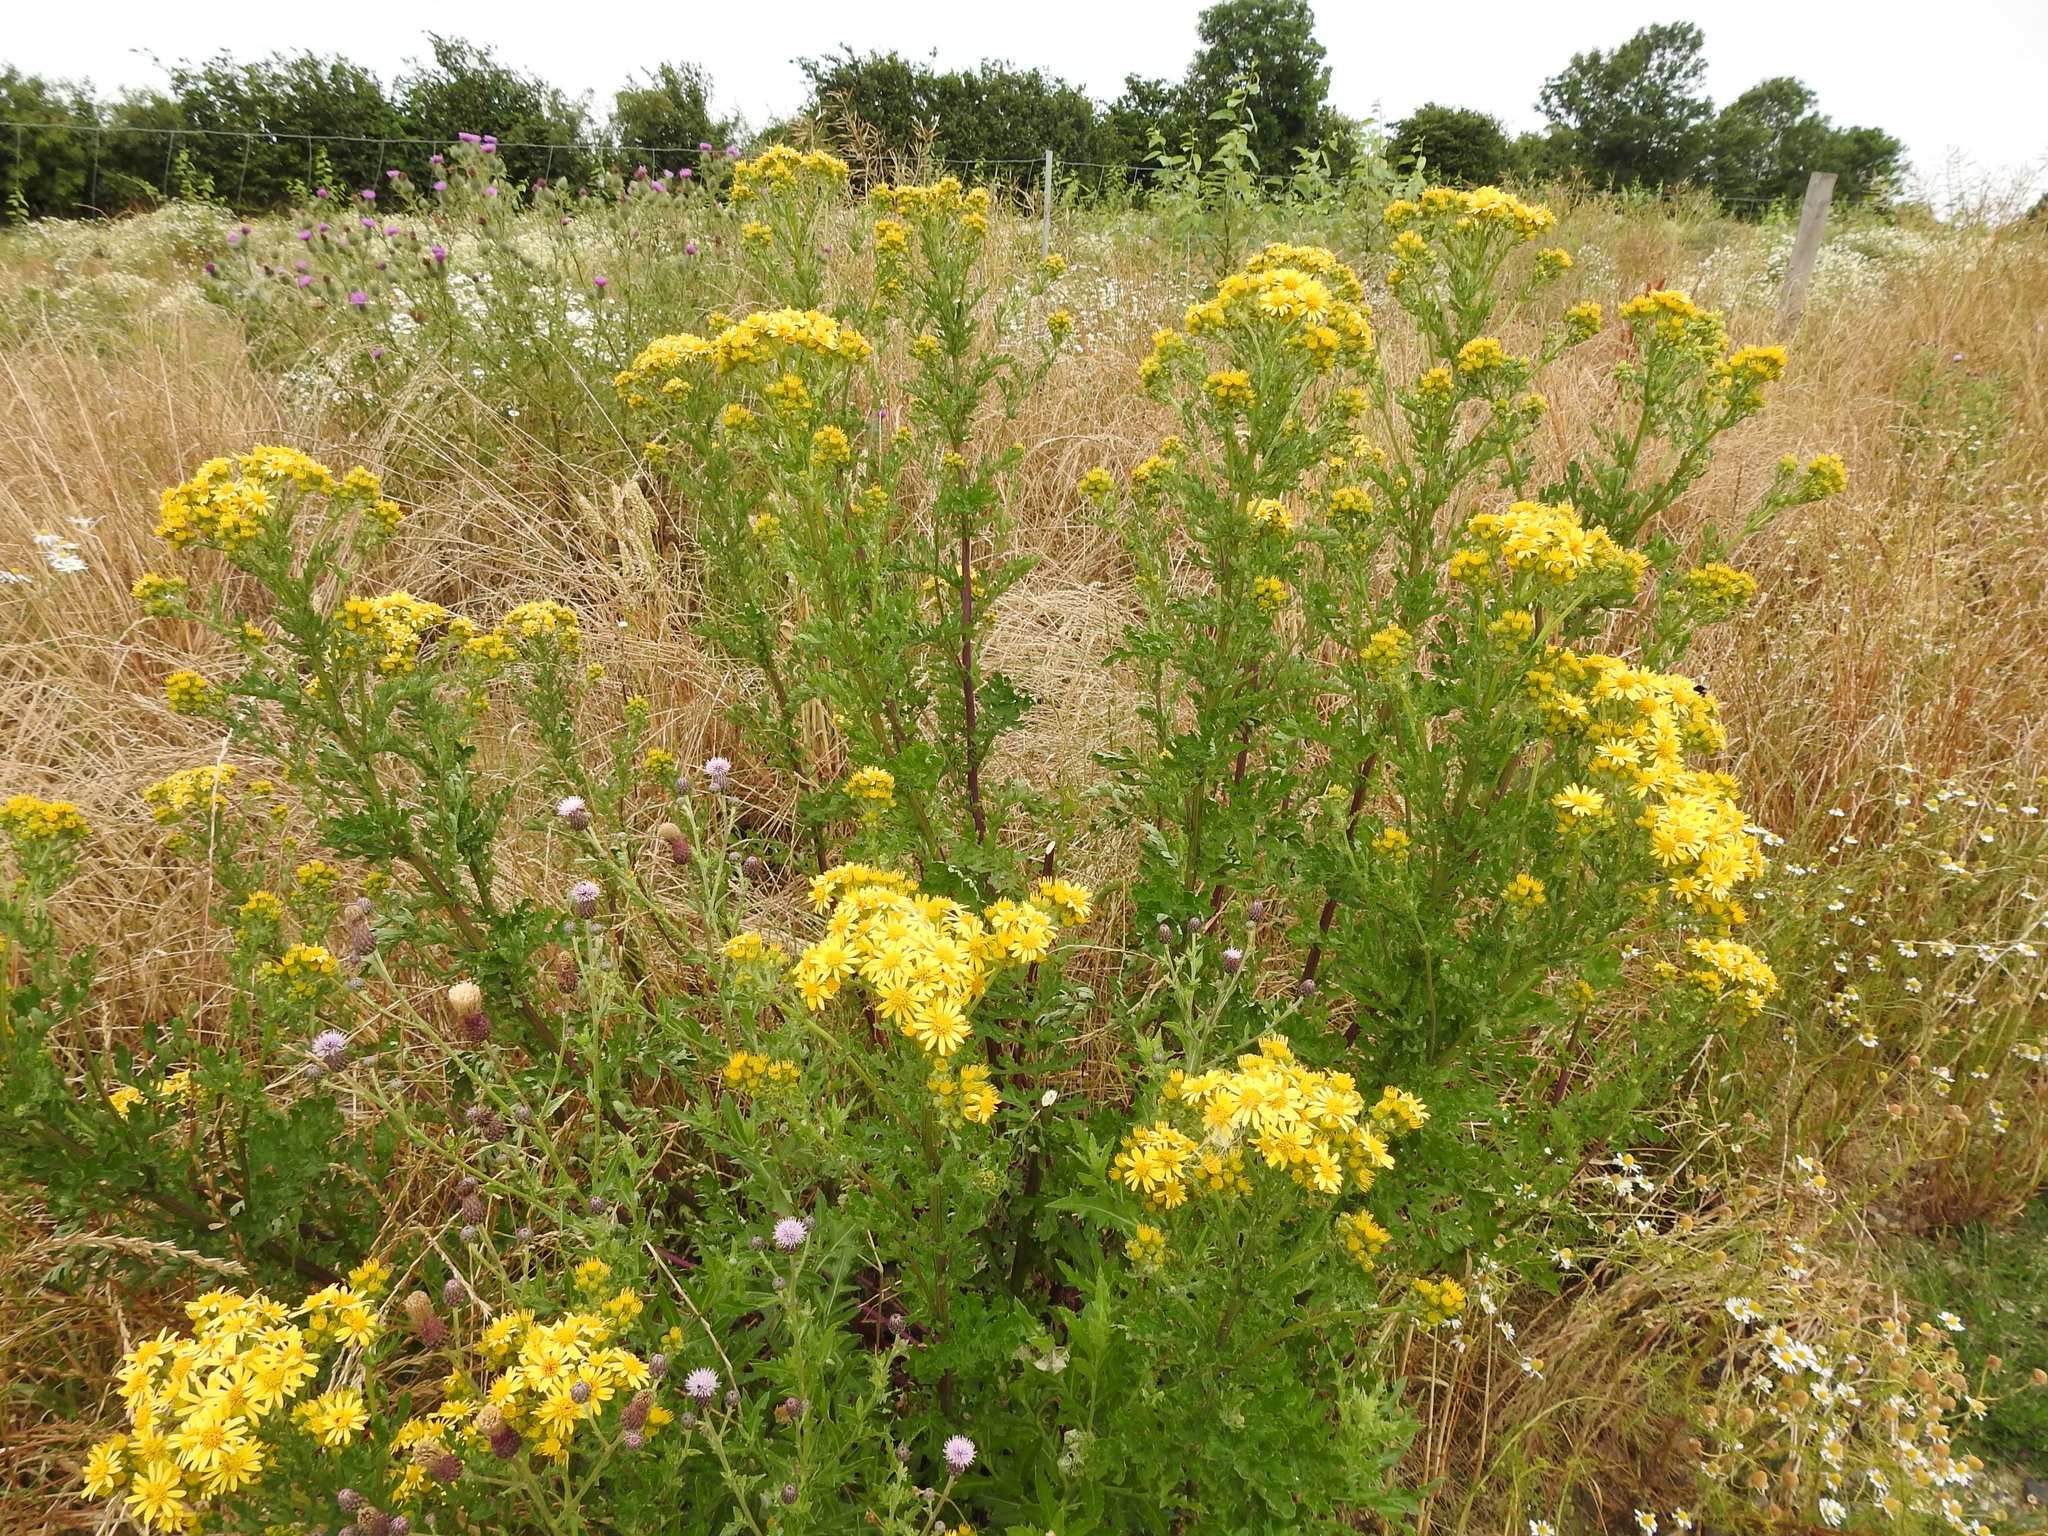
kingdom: Plantae
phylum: Tracheophyta
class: Magnoliopsida
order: Asterales
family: Asteraceae
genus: Jacobaea
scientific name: Jacobaea vulgaris
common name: Stinking willie
